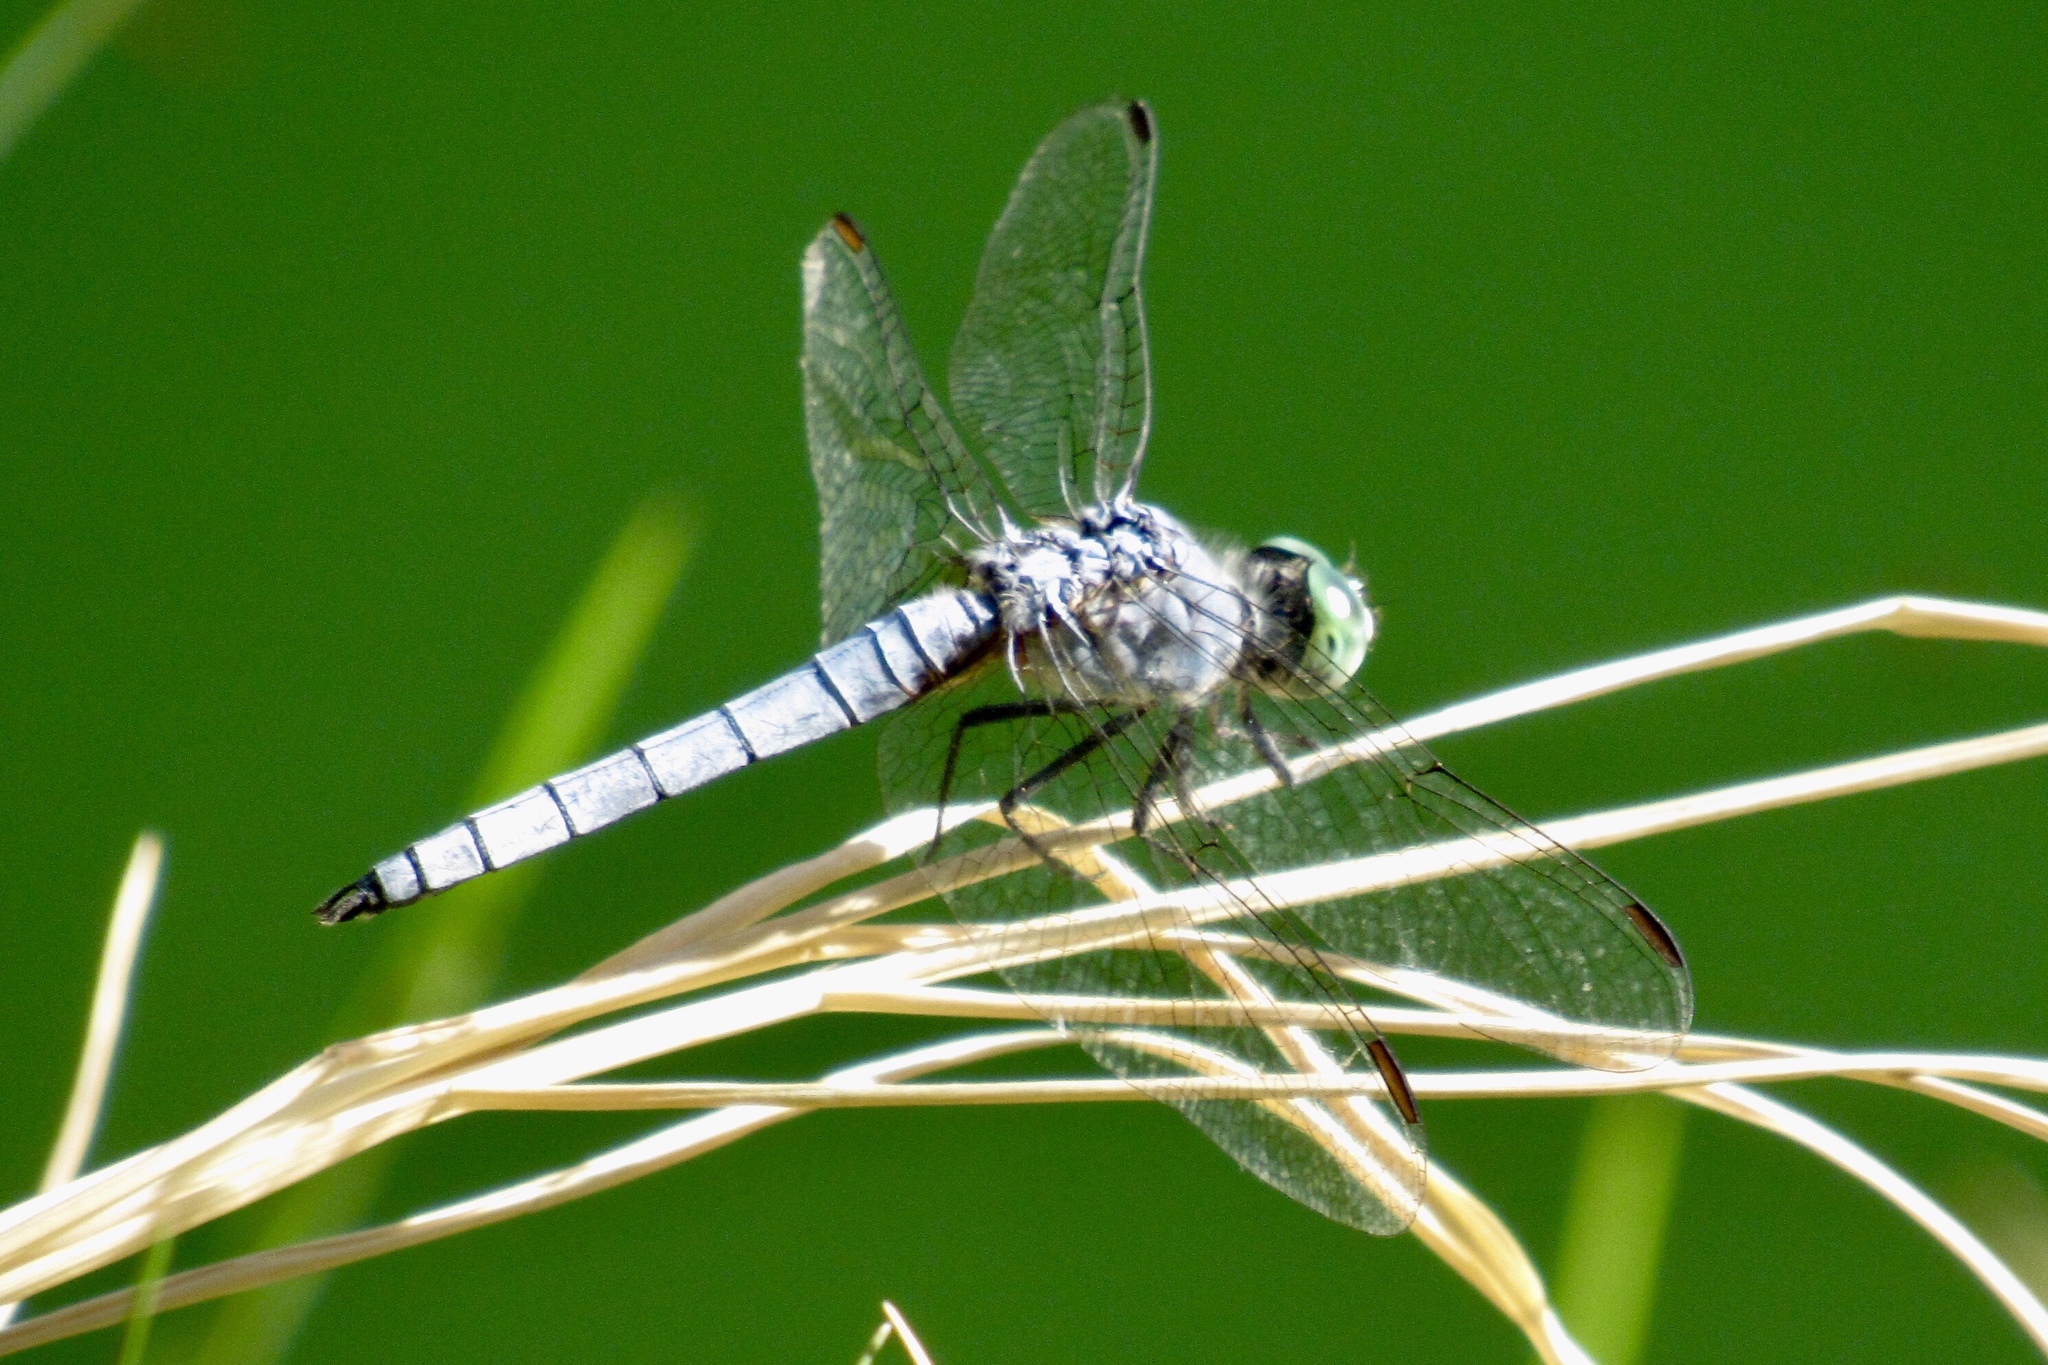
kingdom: Animalia
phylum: Arthropoda
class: Insecta
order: Odonata
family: Libellulidae
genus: Pachydiplax
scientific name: Pachydiplax longipennis
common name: Blue dasher
